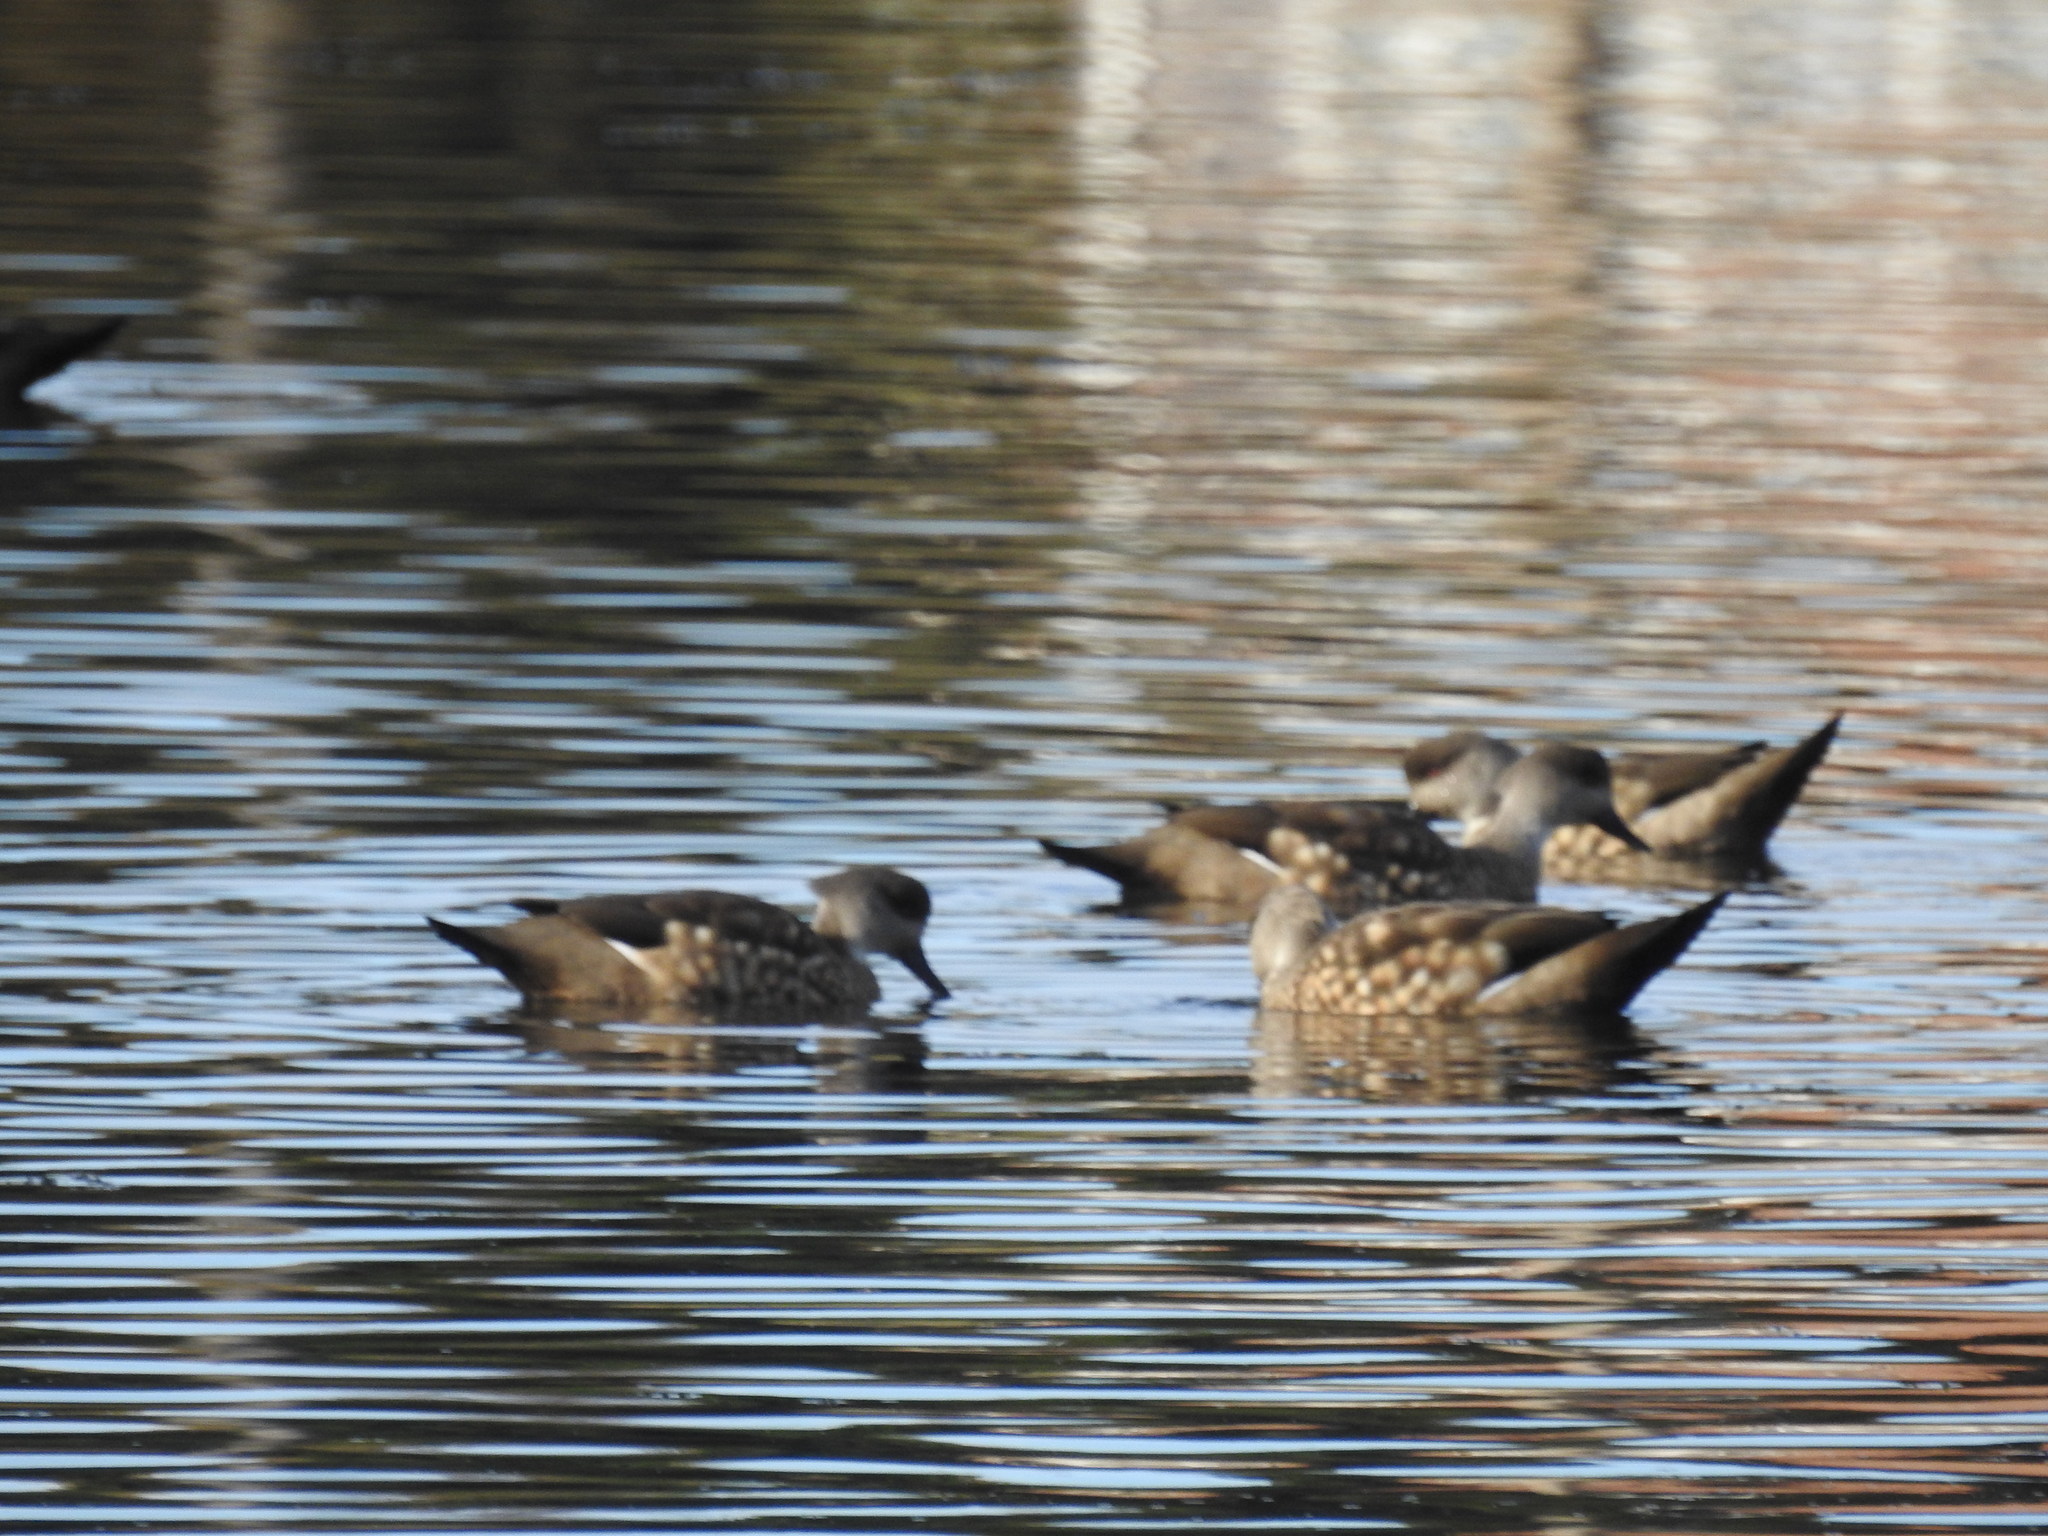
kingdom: Animalia
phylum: Chordata
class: Aves
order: Anseriformes
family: Anatidae
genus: Lophonetta
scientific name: Lophonetta specularioides
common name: Crested duck
